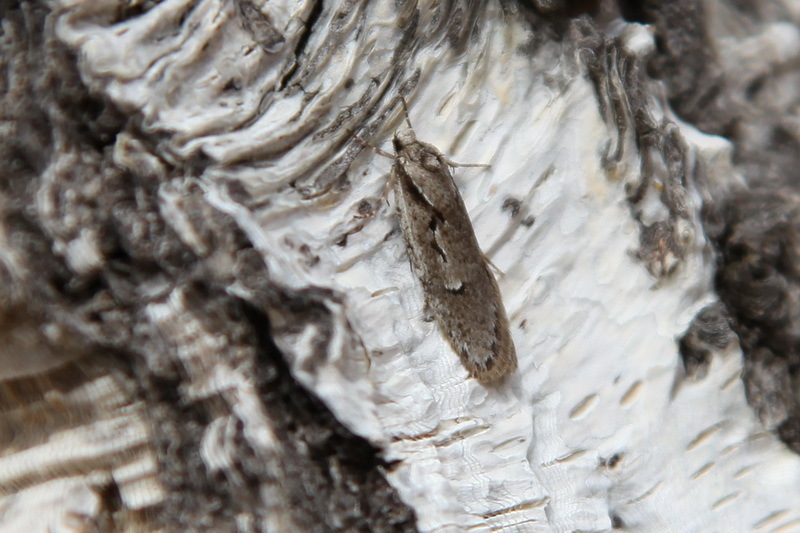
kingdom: Animalia
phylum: Arthropoda
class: Insecta
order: Lepidoptera
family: Depressariidae
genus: Semioscopis
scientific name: Semioscopis avellanella
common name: Early flat-body
